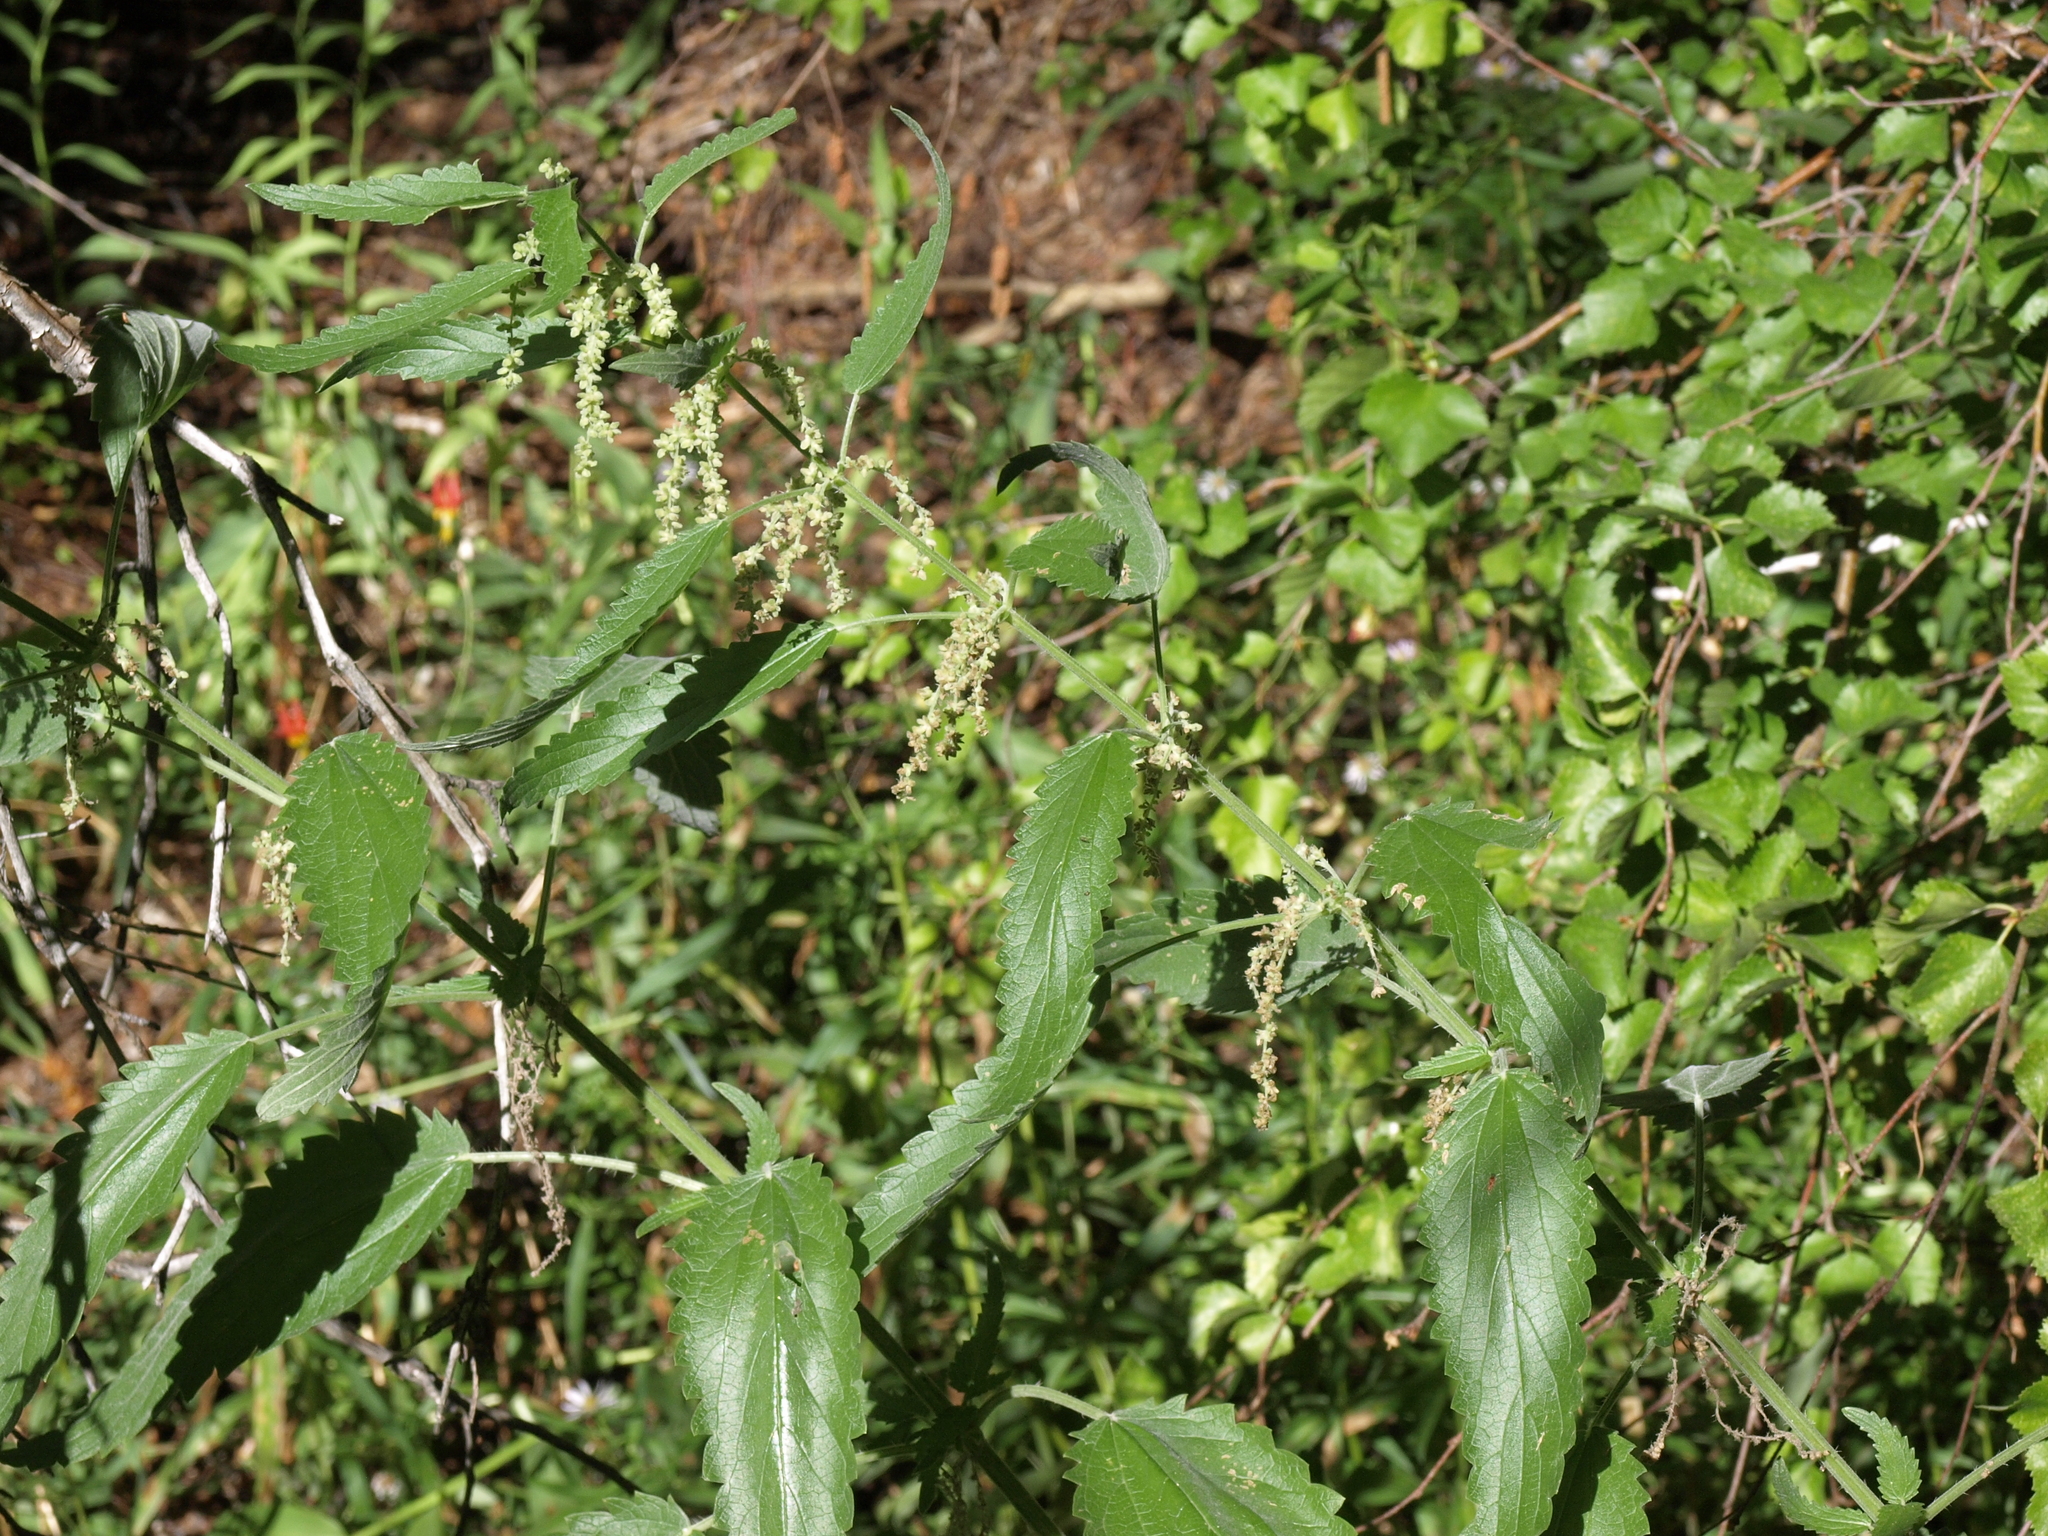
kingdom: Plantae
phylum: Tracheophyta
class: Magnoliopsida
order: Rosales
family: Urticaceae
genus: Urtica
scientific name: Urtica gracilis
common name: Slender stinging nettle
